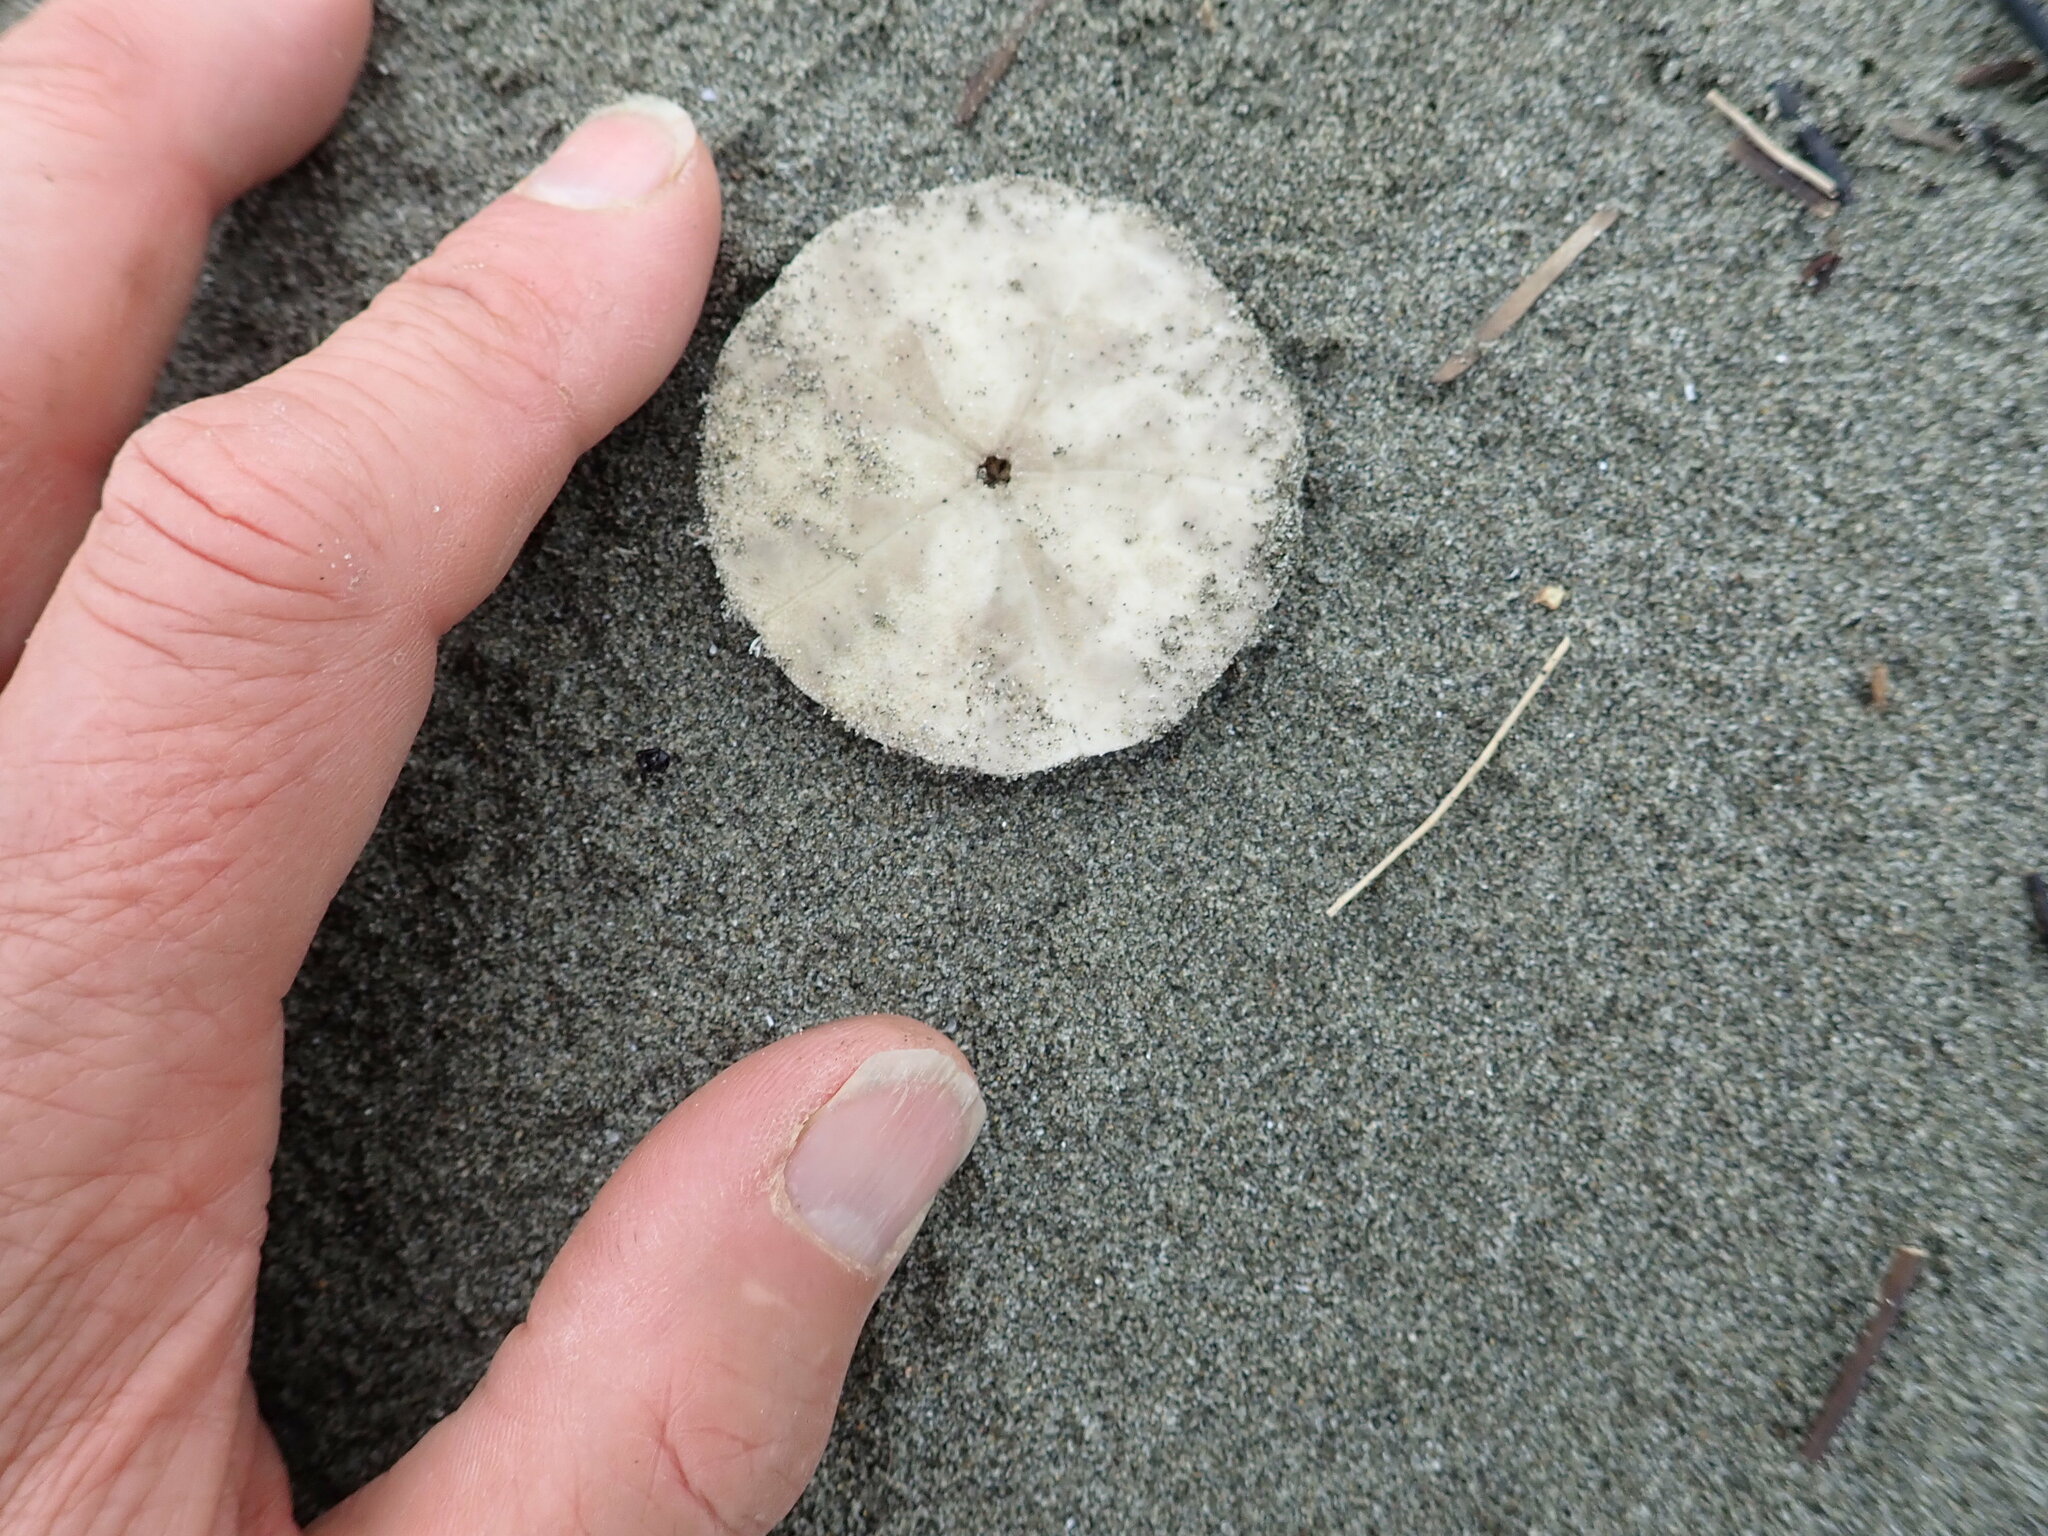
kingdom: Animalia
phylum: Echinodermata
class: Echinoidea
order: Clypeasteroida
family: Clypeasteridae
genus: Fellaster
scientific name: Fellaster zelandiae
